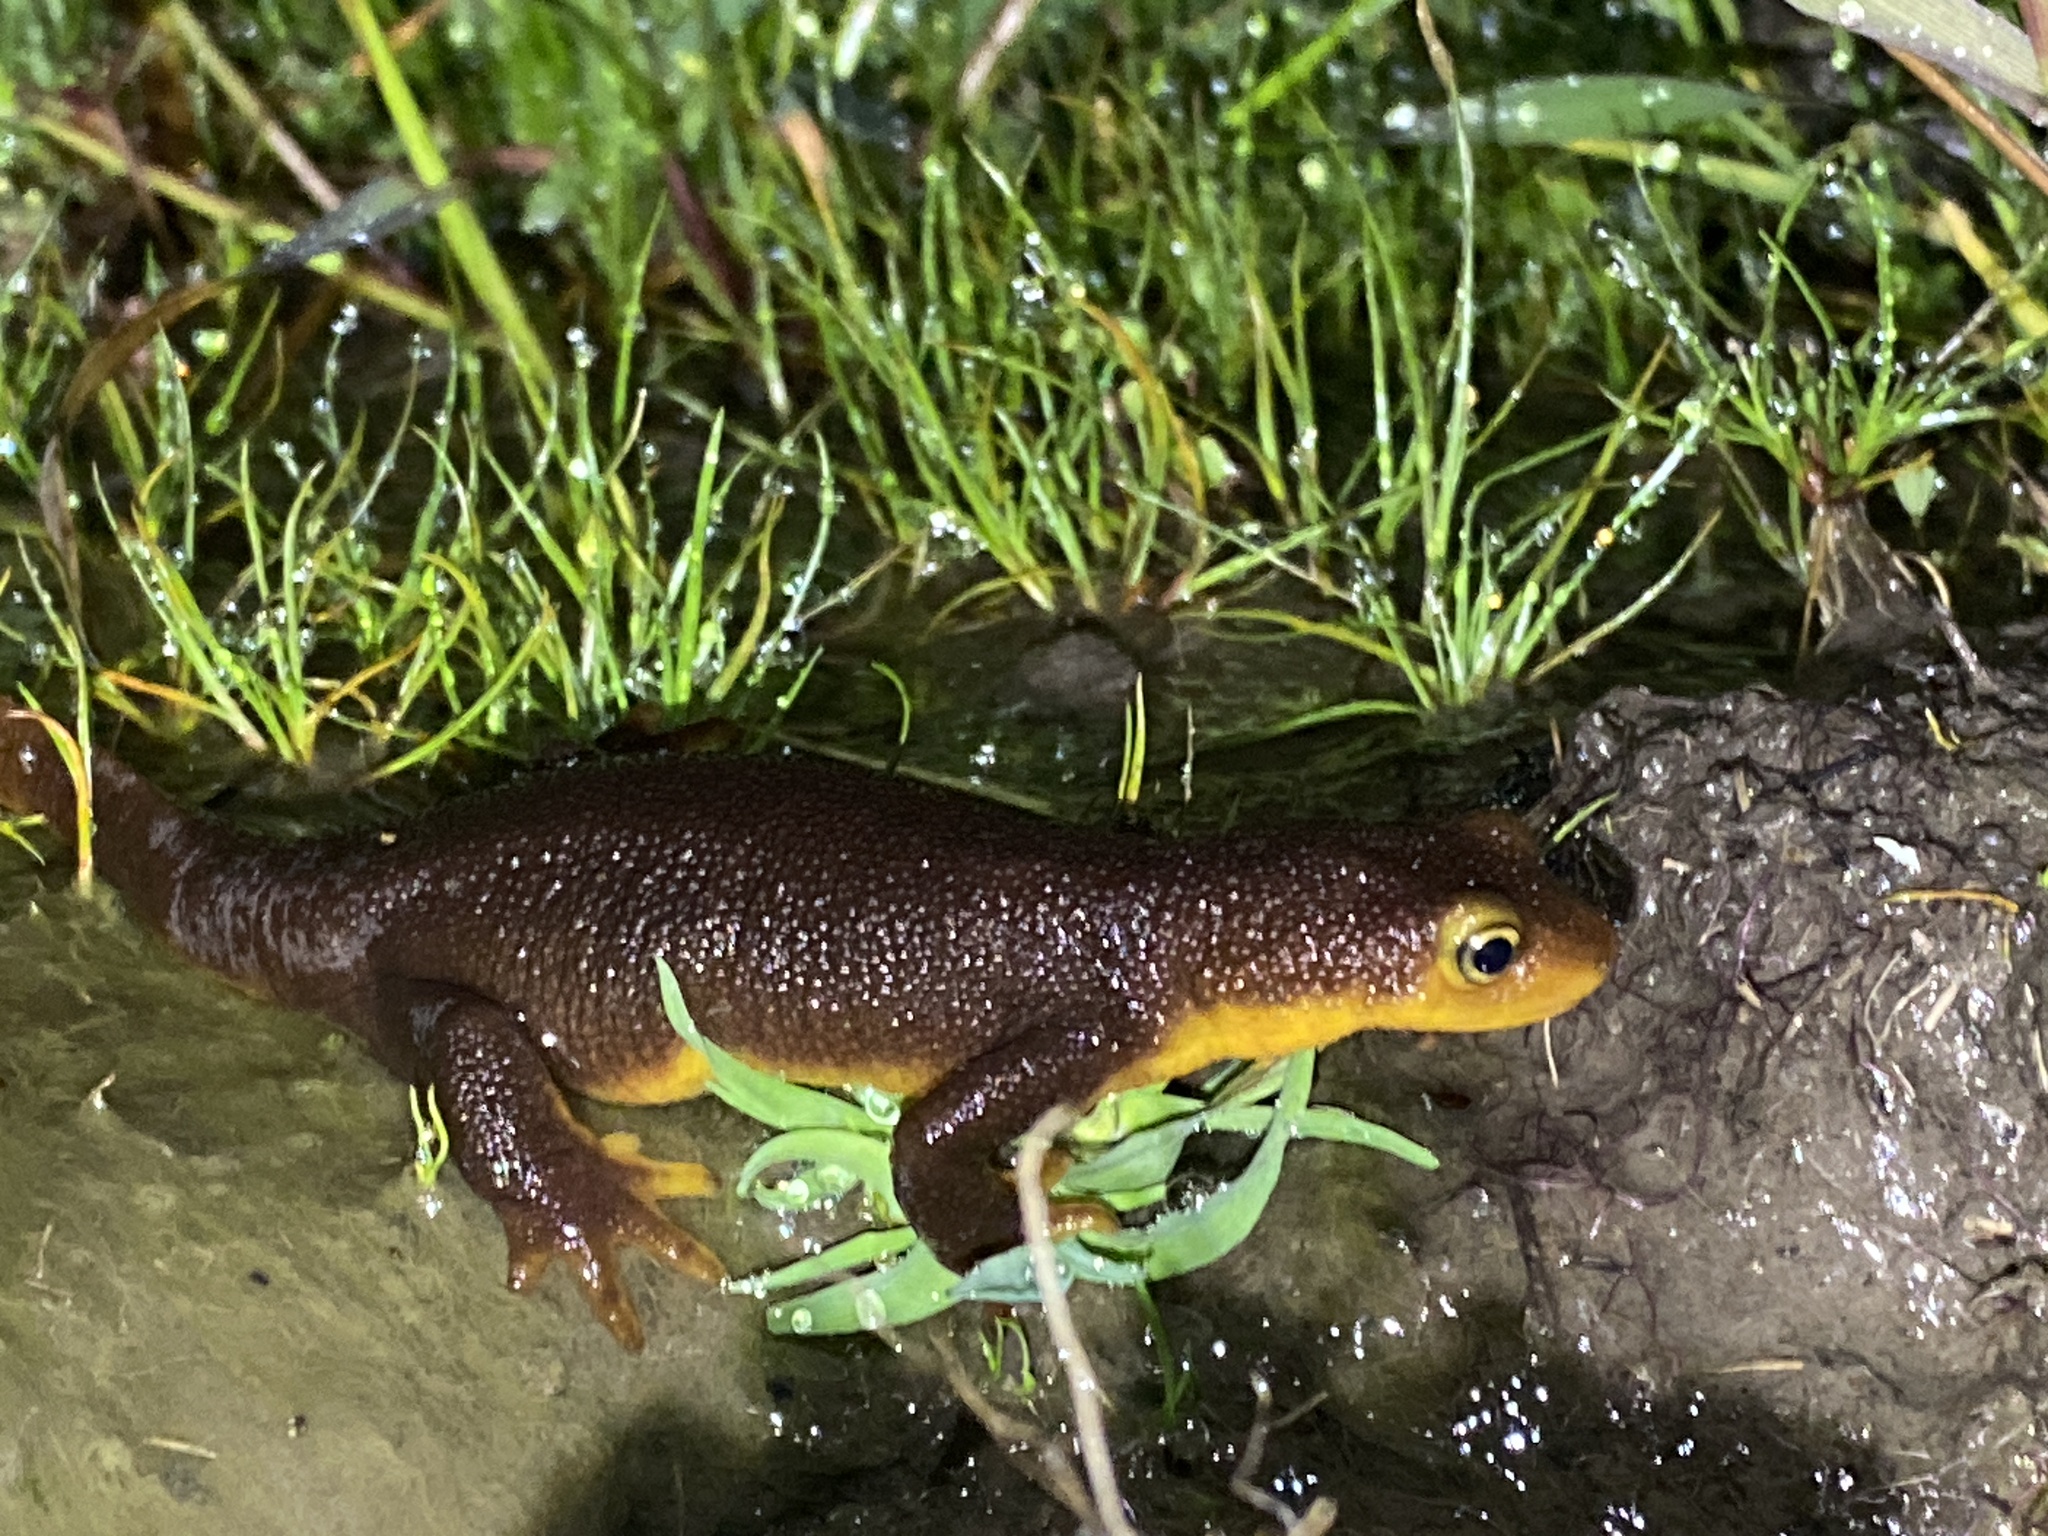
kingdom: Animalia
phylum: Chordata
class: Amphibia
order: Caudata
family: Salamandridae
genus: Taricha
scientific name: Taricha torosa
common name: California newt
